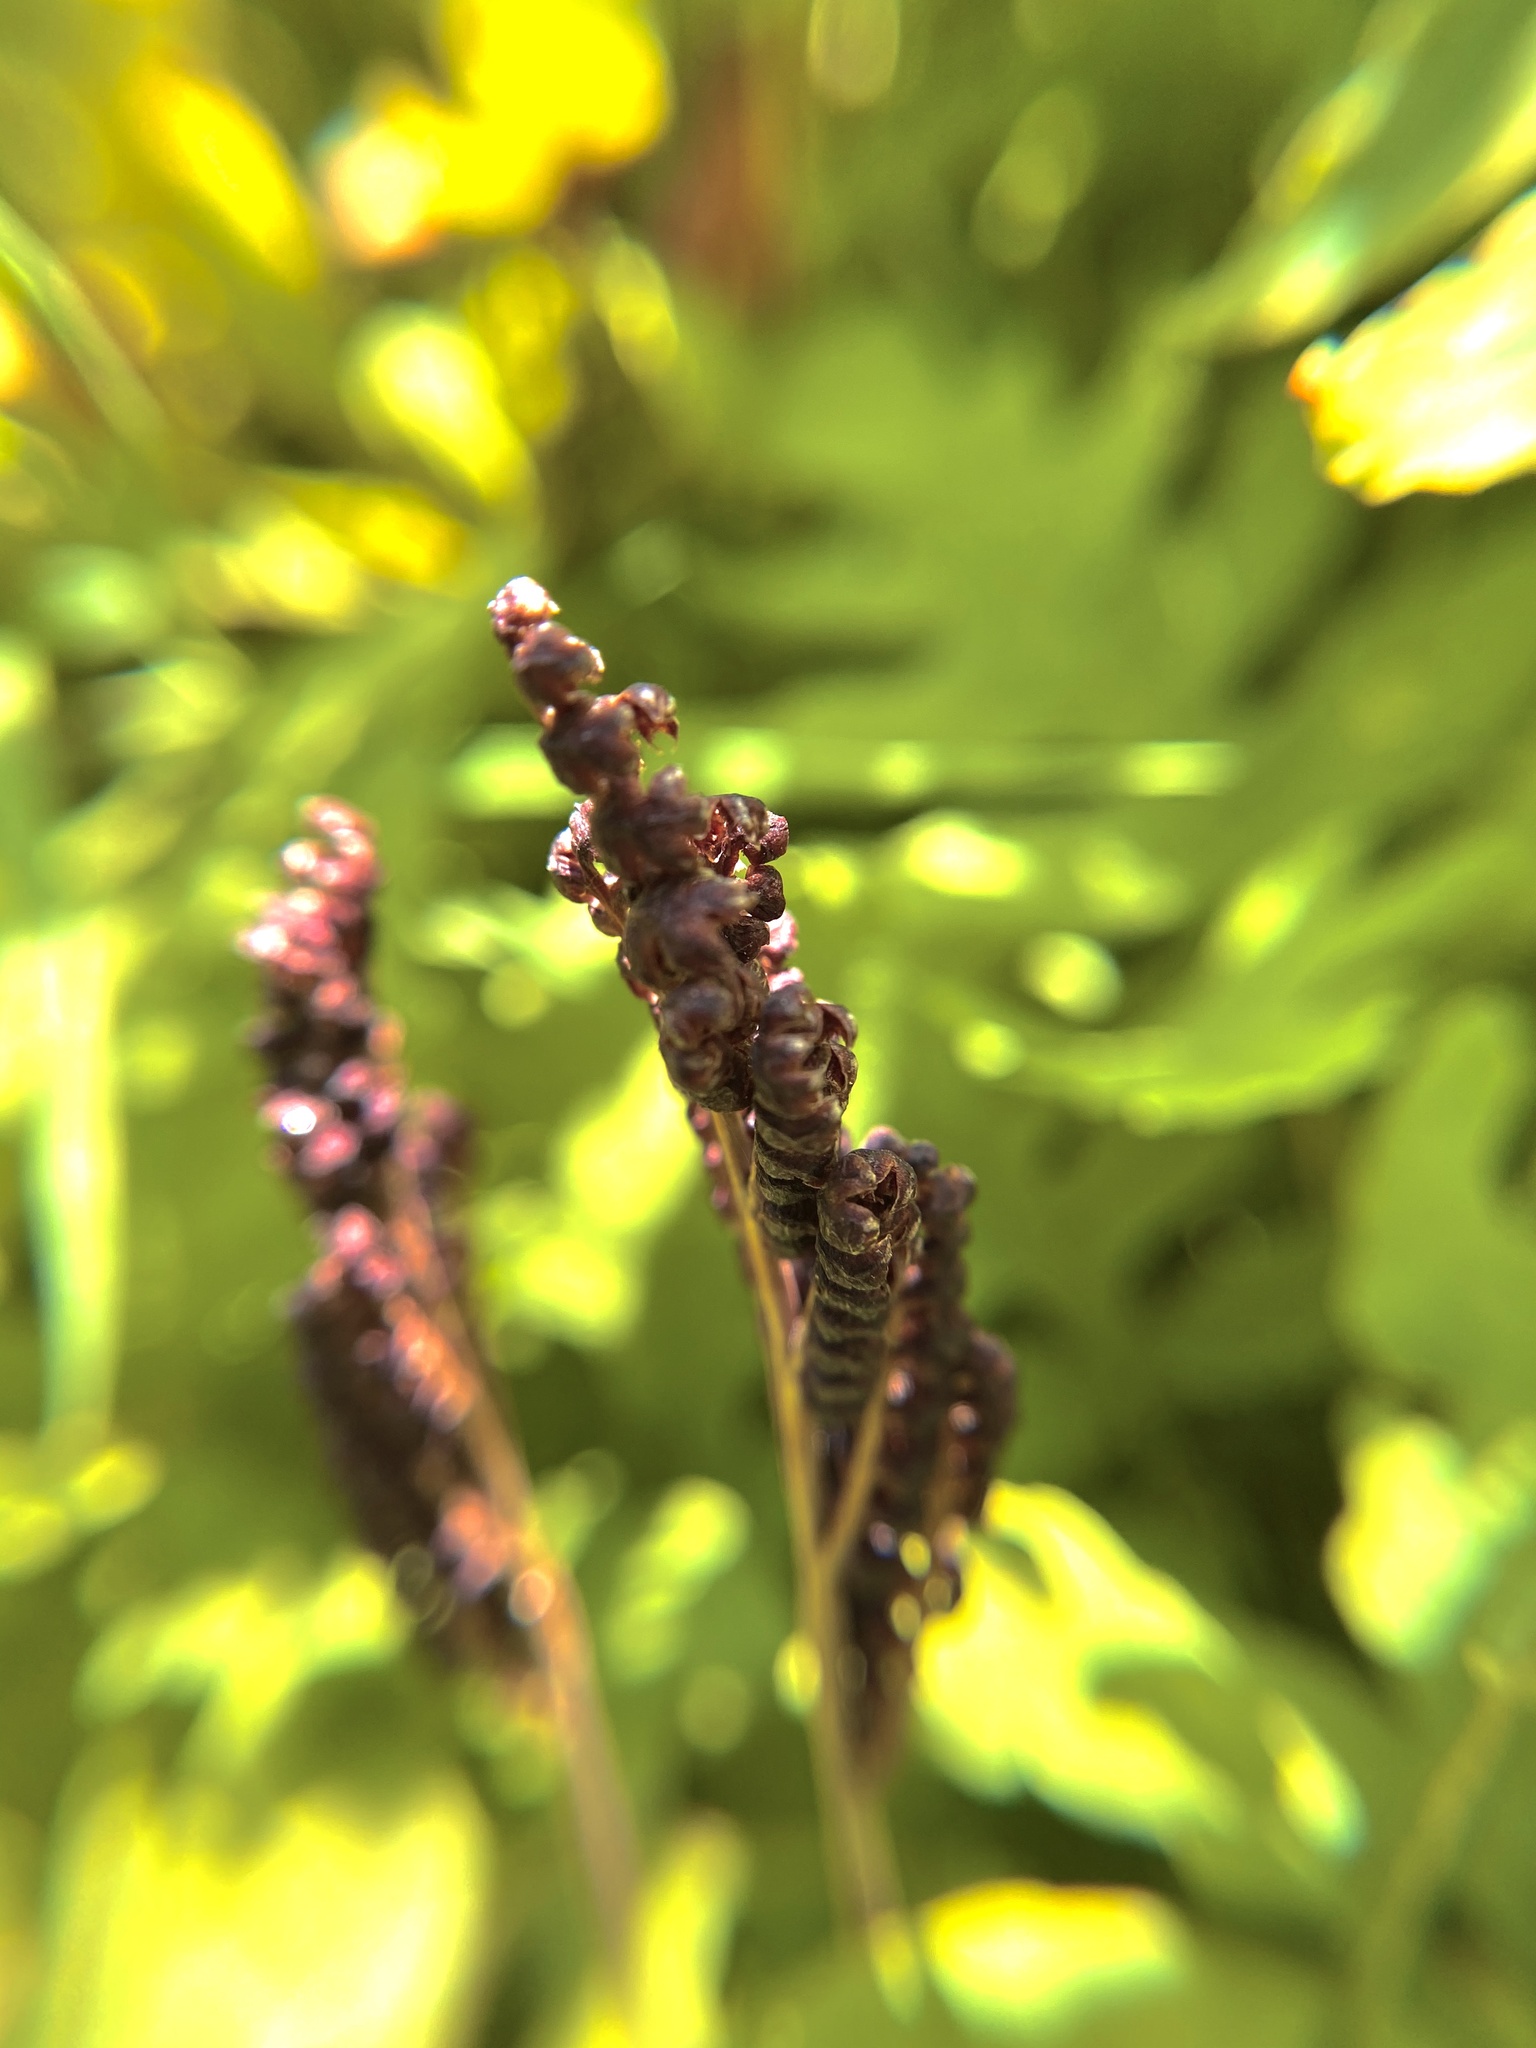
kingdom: Plantae
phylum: Tracheophyta
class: Polypodiopsida
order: Polypodiales
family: Onocleaceae
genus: Onoclea
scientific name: Onoclea sensibilis
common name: Sensitive fern
